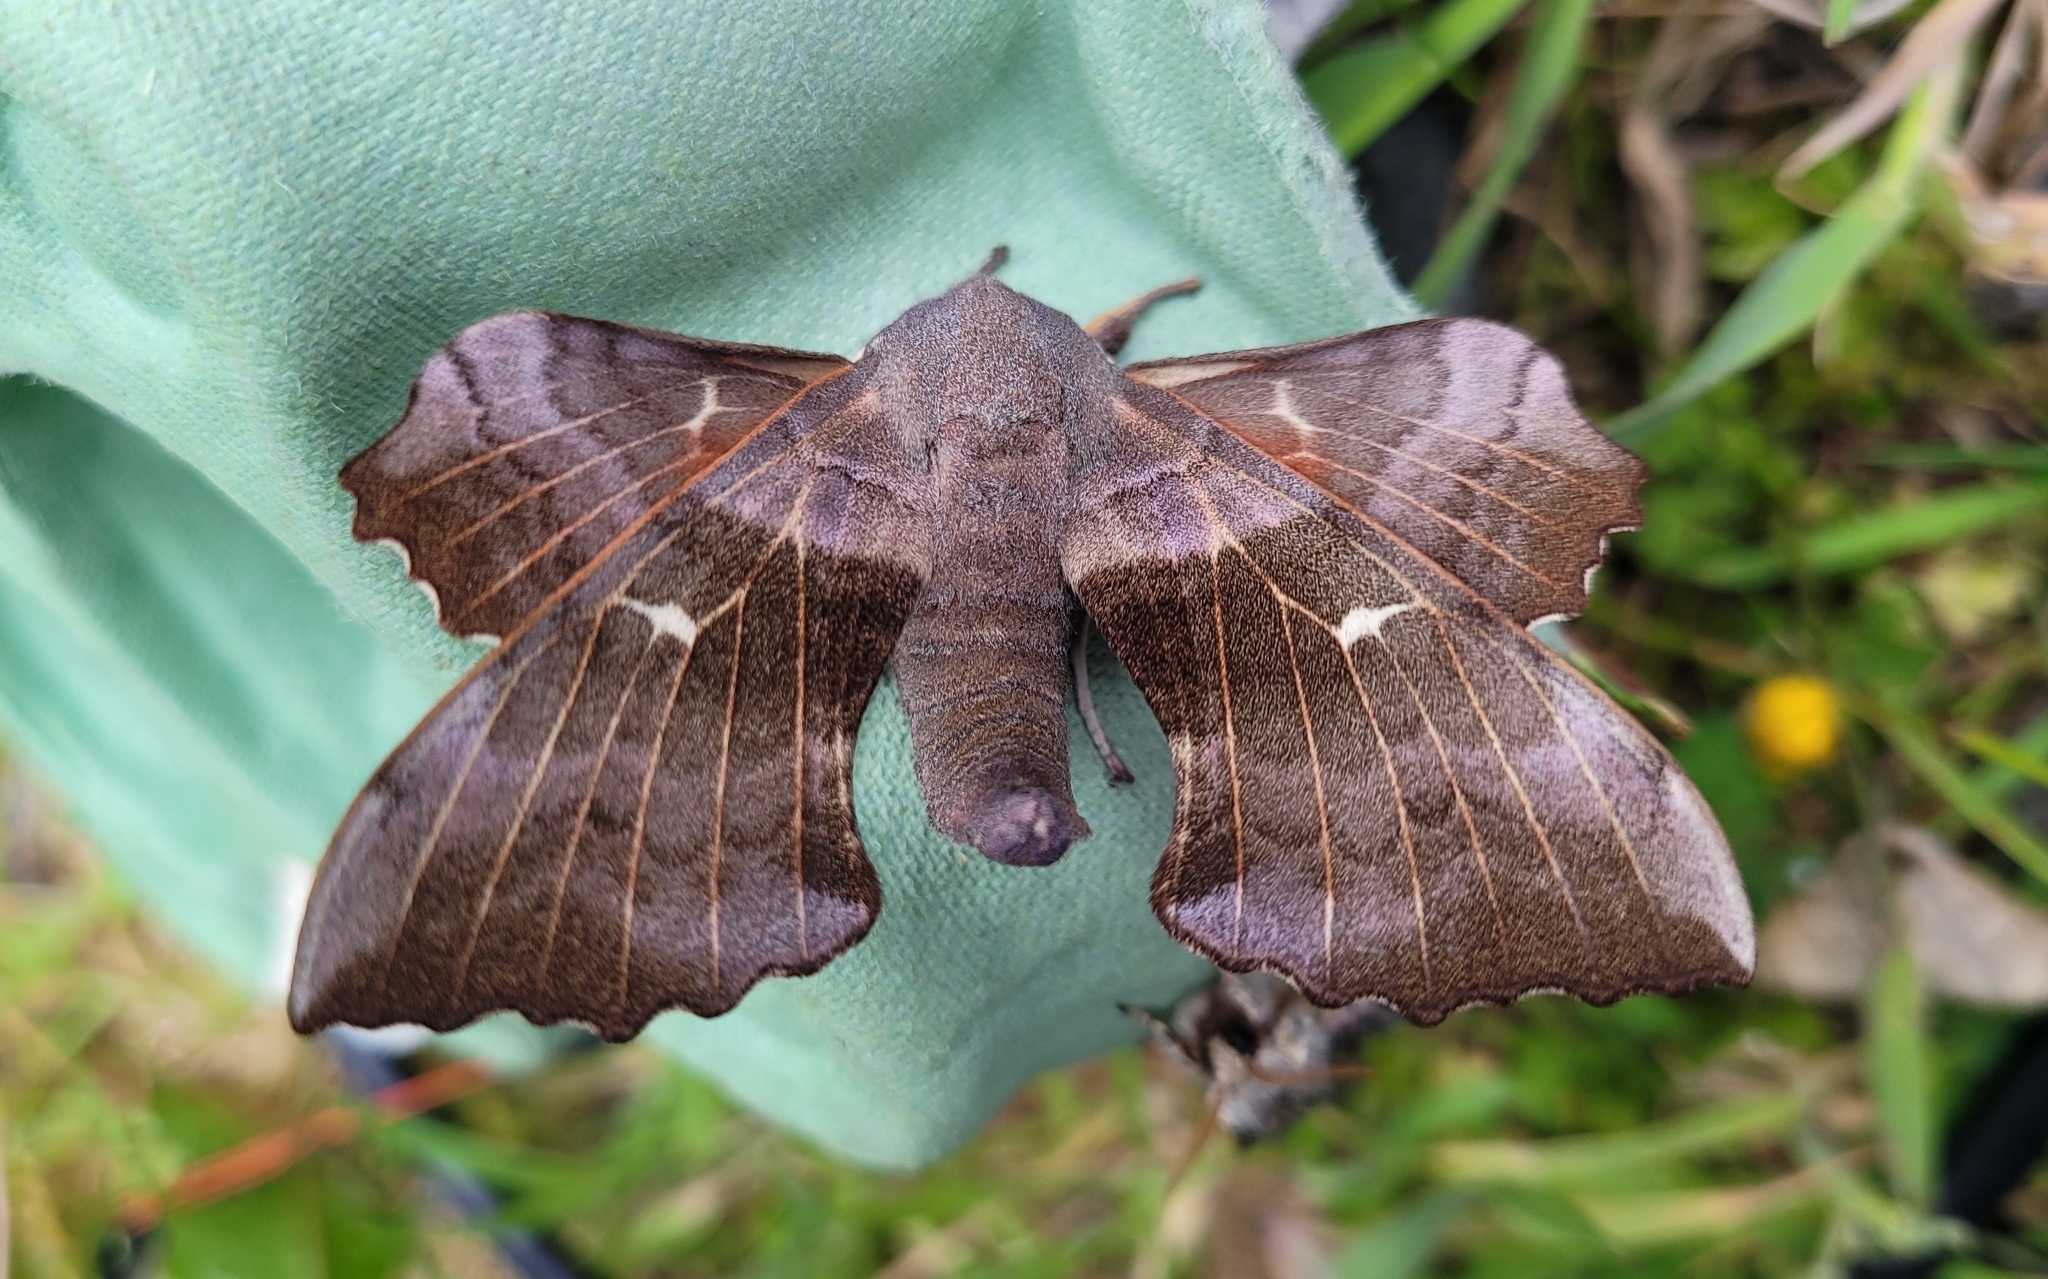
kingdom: Animalia
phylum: Arthropoda
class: Insecta
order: Lepidoptera
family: Sphingidae
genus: Laothoe
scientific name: Laothoe populi
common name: Poplar hawk-moth
